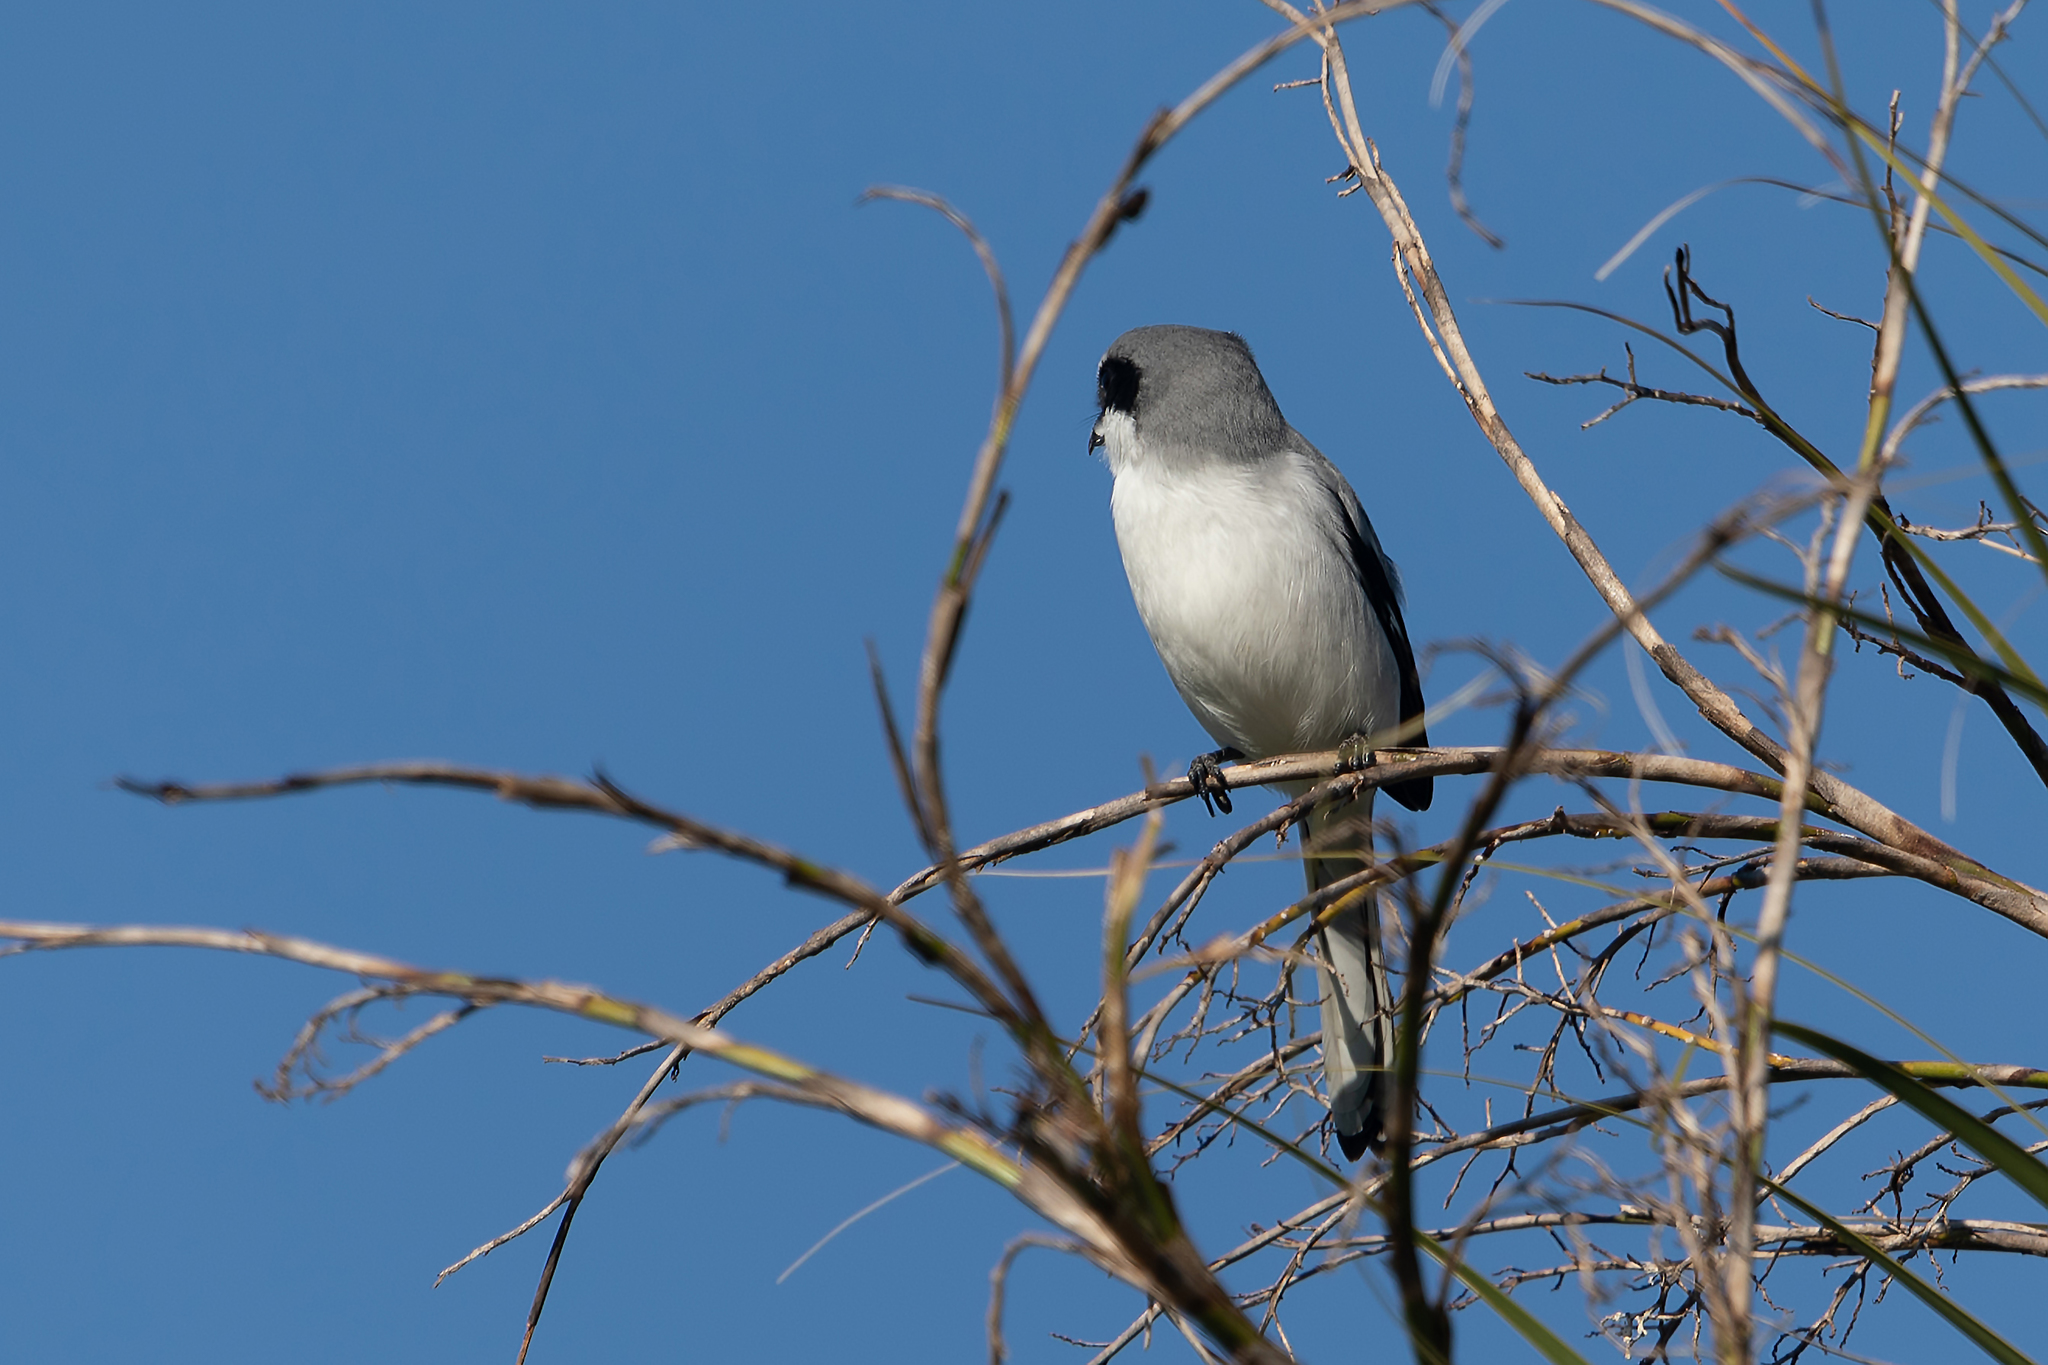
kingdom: Animalia
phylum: Chordata
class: Aves
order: Passeriformes
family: Laniidae
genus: Lanius
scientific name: Lanius ludovicianus
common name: Loggerhead shrike
